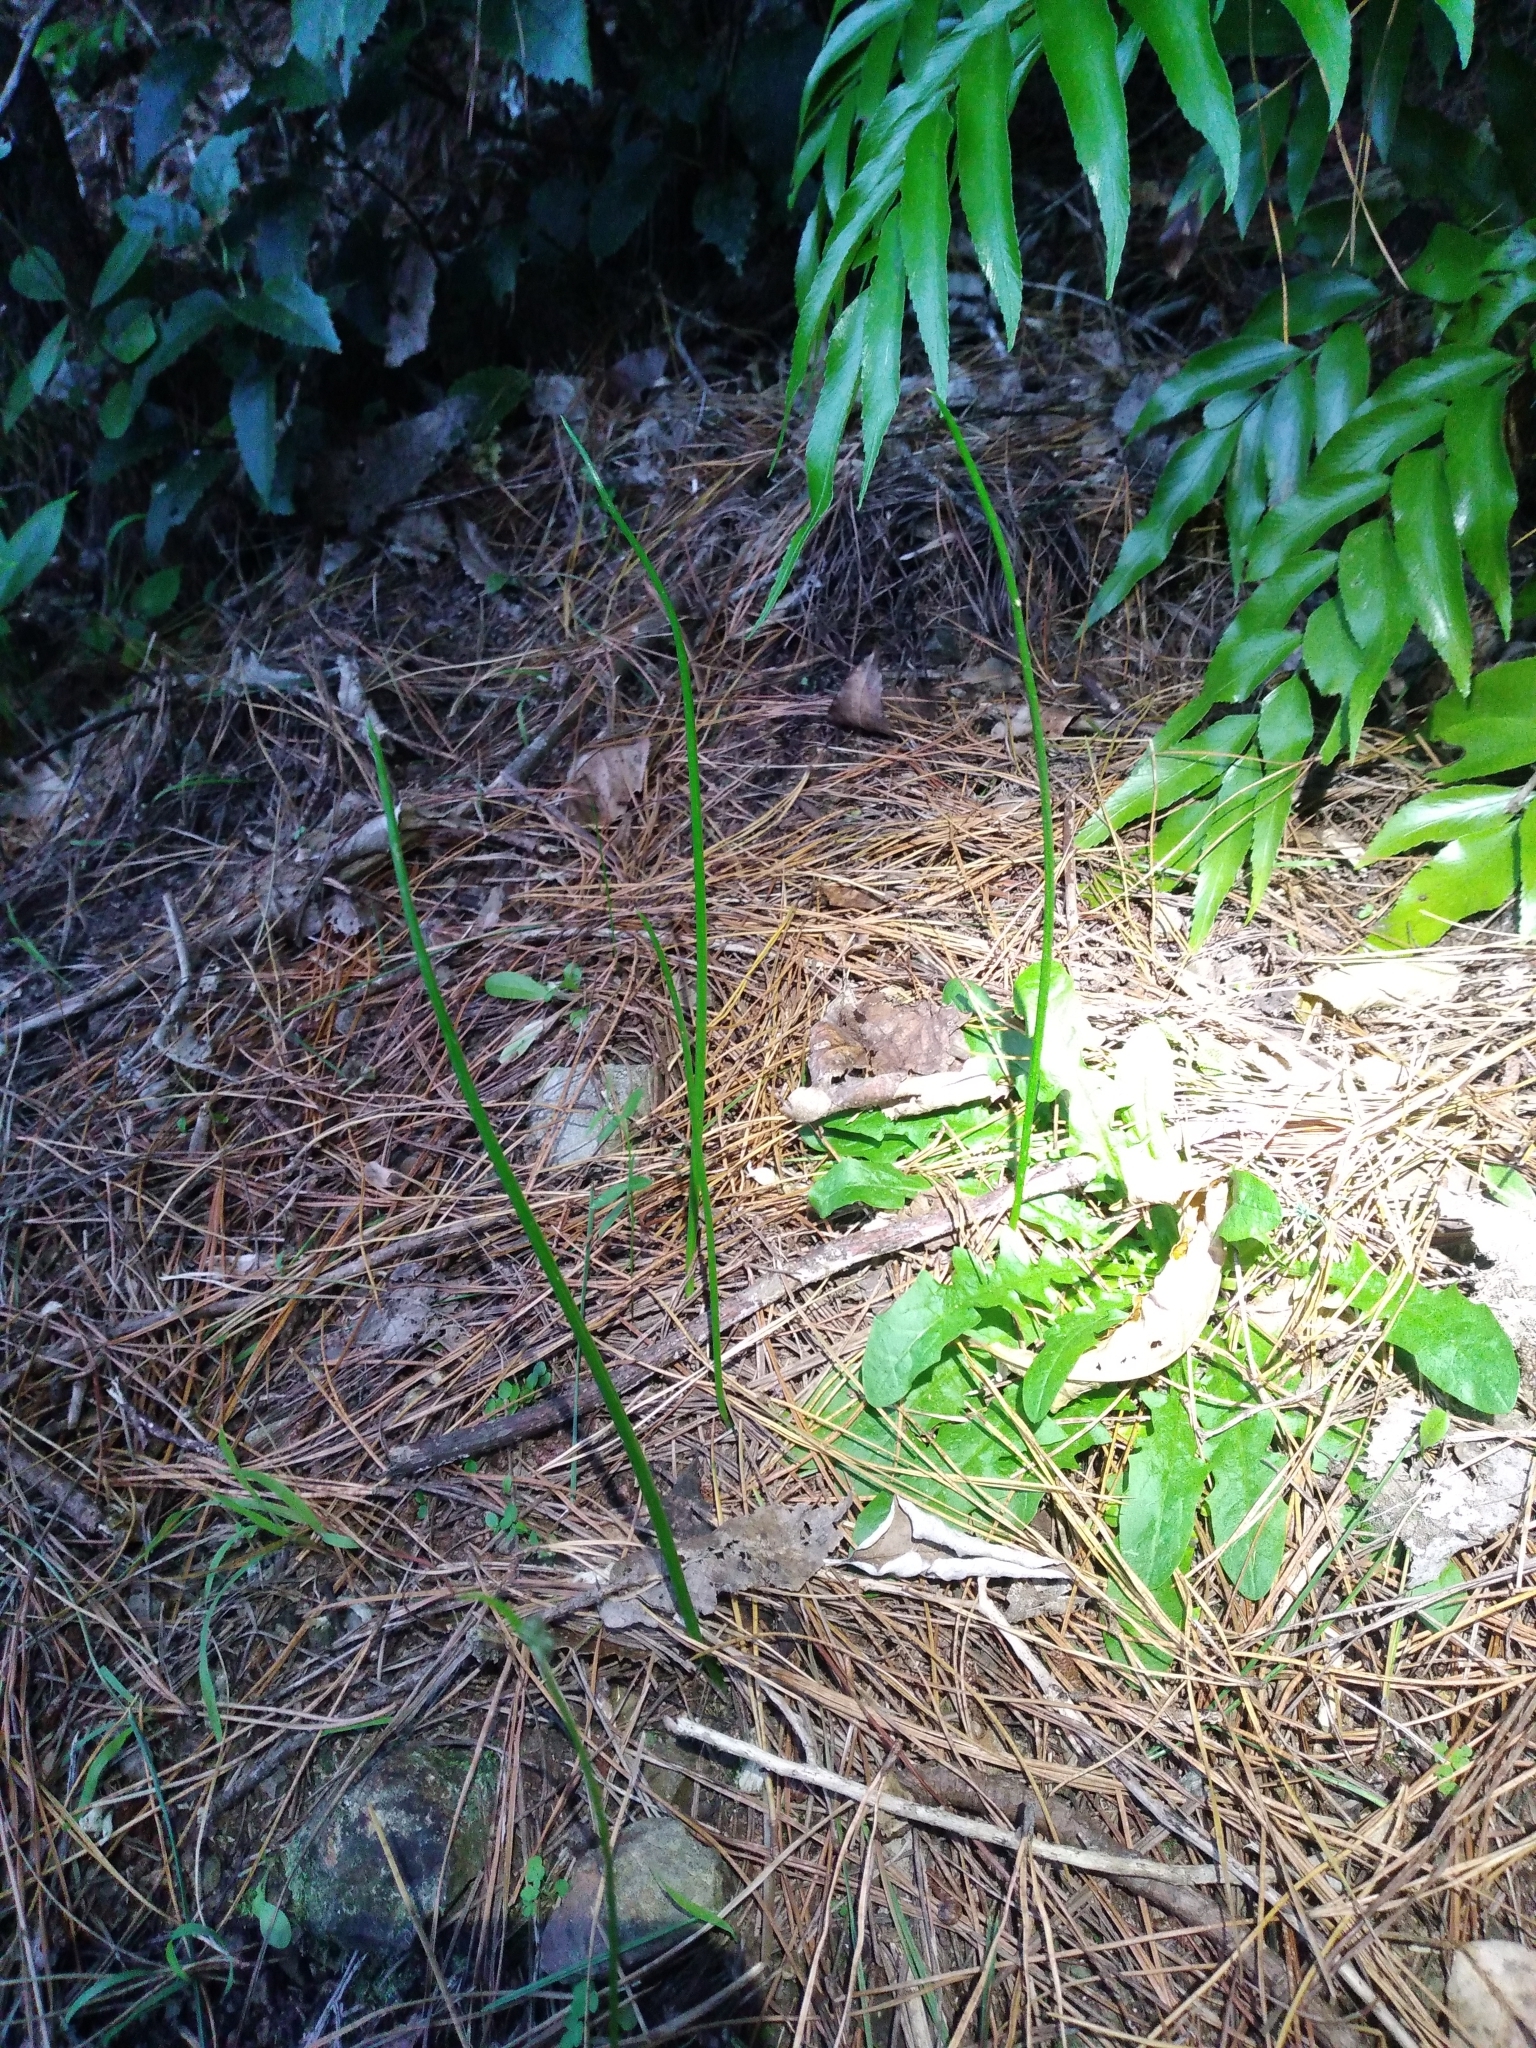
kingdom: Plantae
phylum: Tracheophyta
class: Liliopsida
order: Asparagales
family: Orchidaceae
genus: Microtis
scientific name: Microtis unifolia
